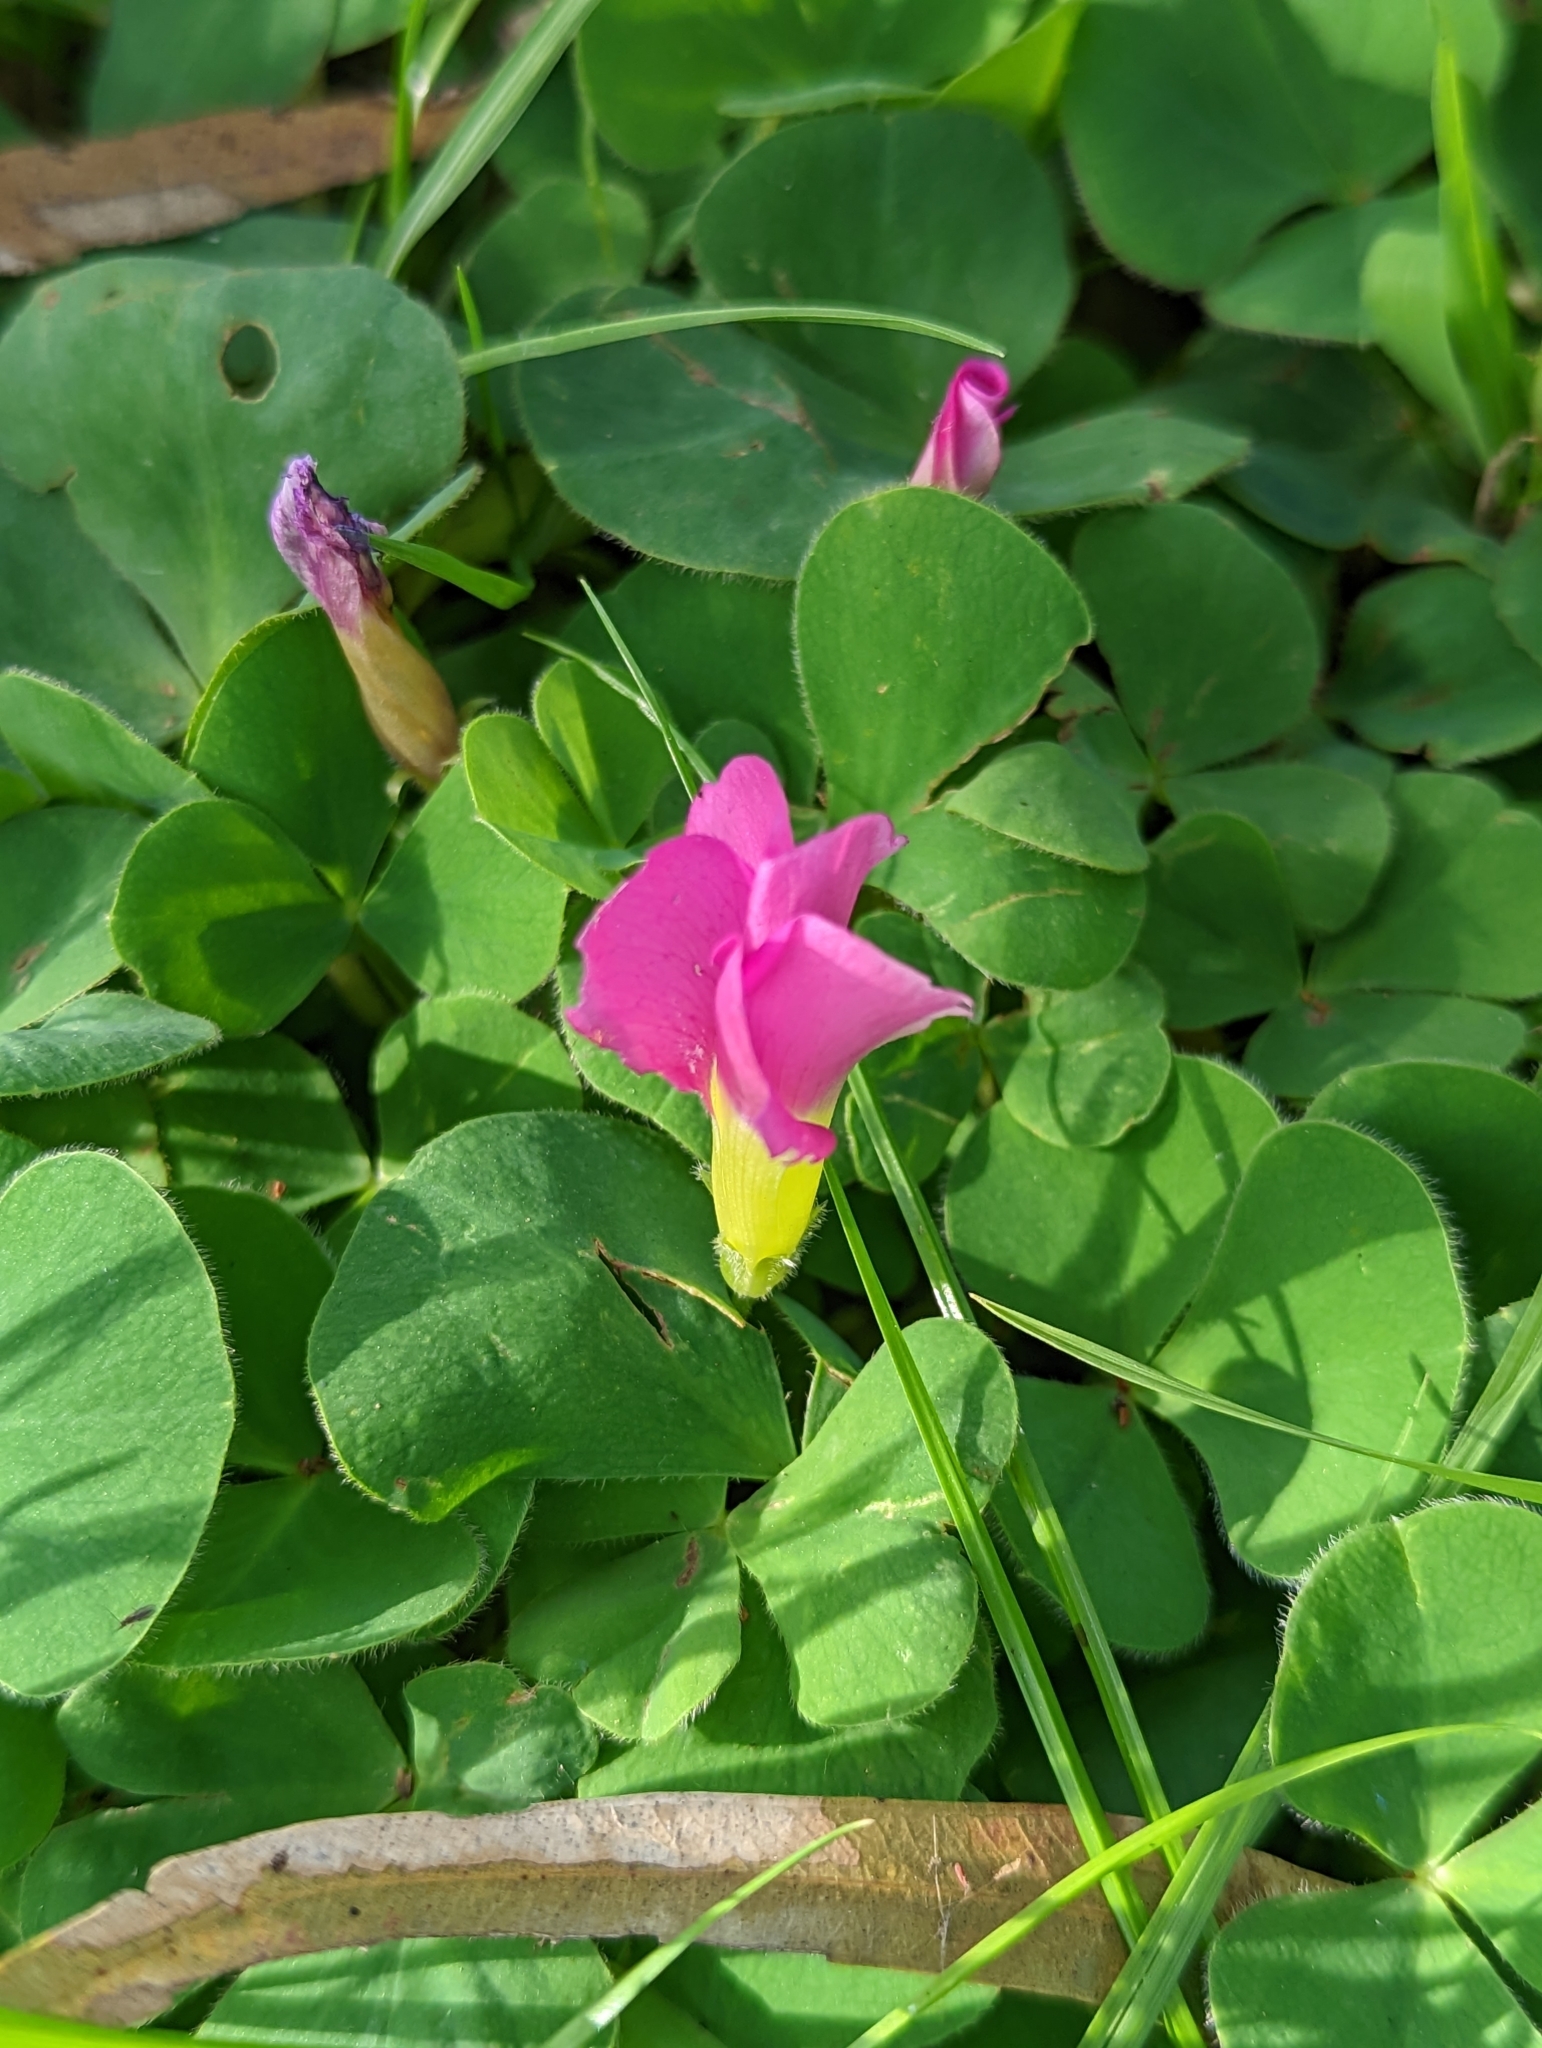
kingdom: Plantae
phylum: Tracheophyta
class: Magnoliopsida
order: Oxalidales
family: Oxalidaceae
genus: Oxalis
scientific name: Oxalis purpurea
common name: Purple woodsorrel
